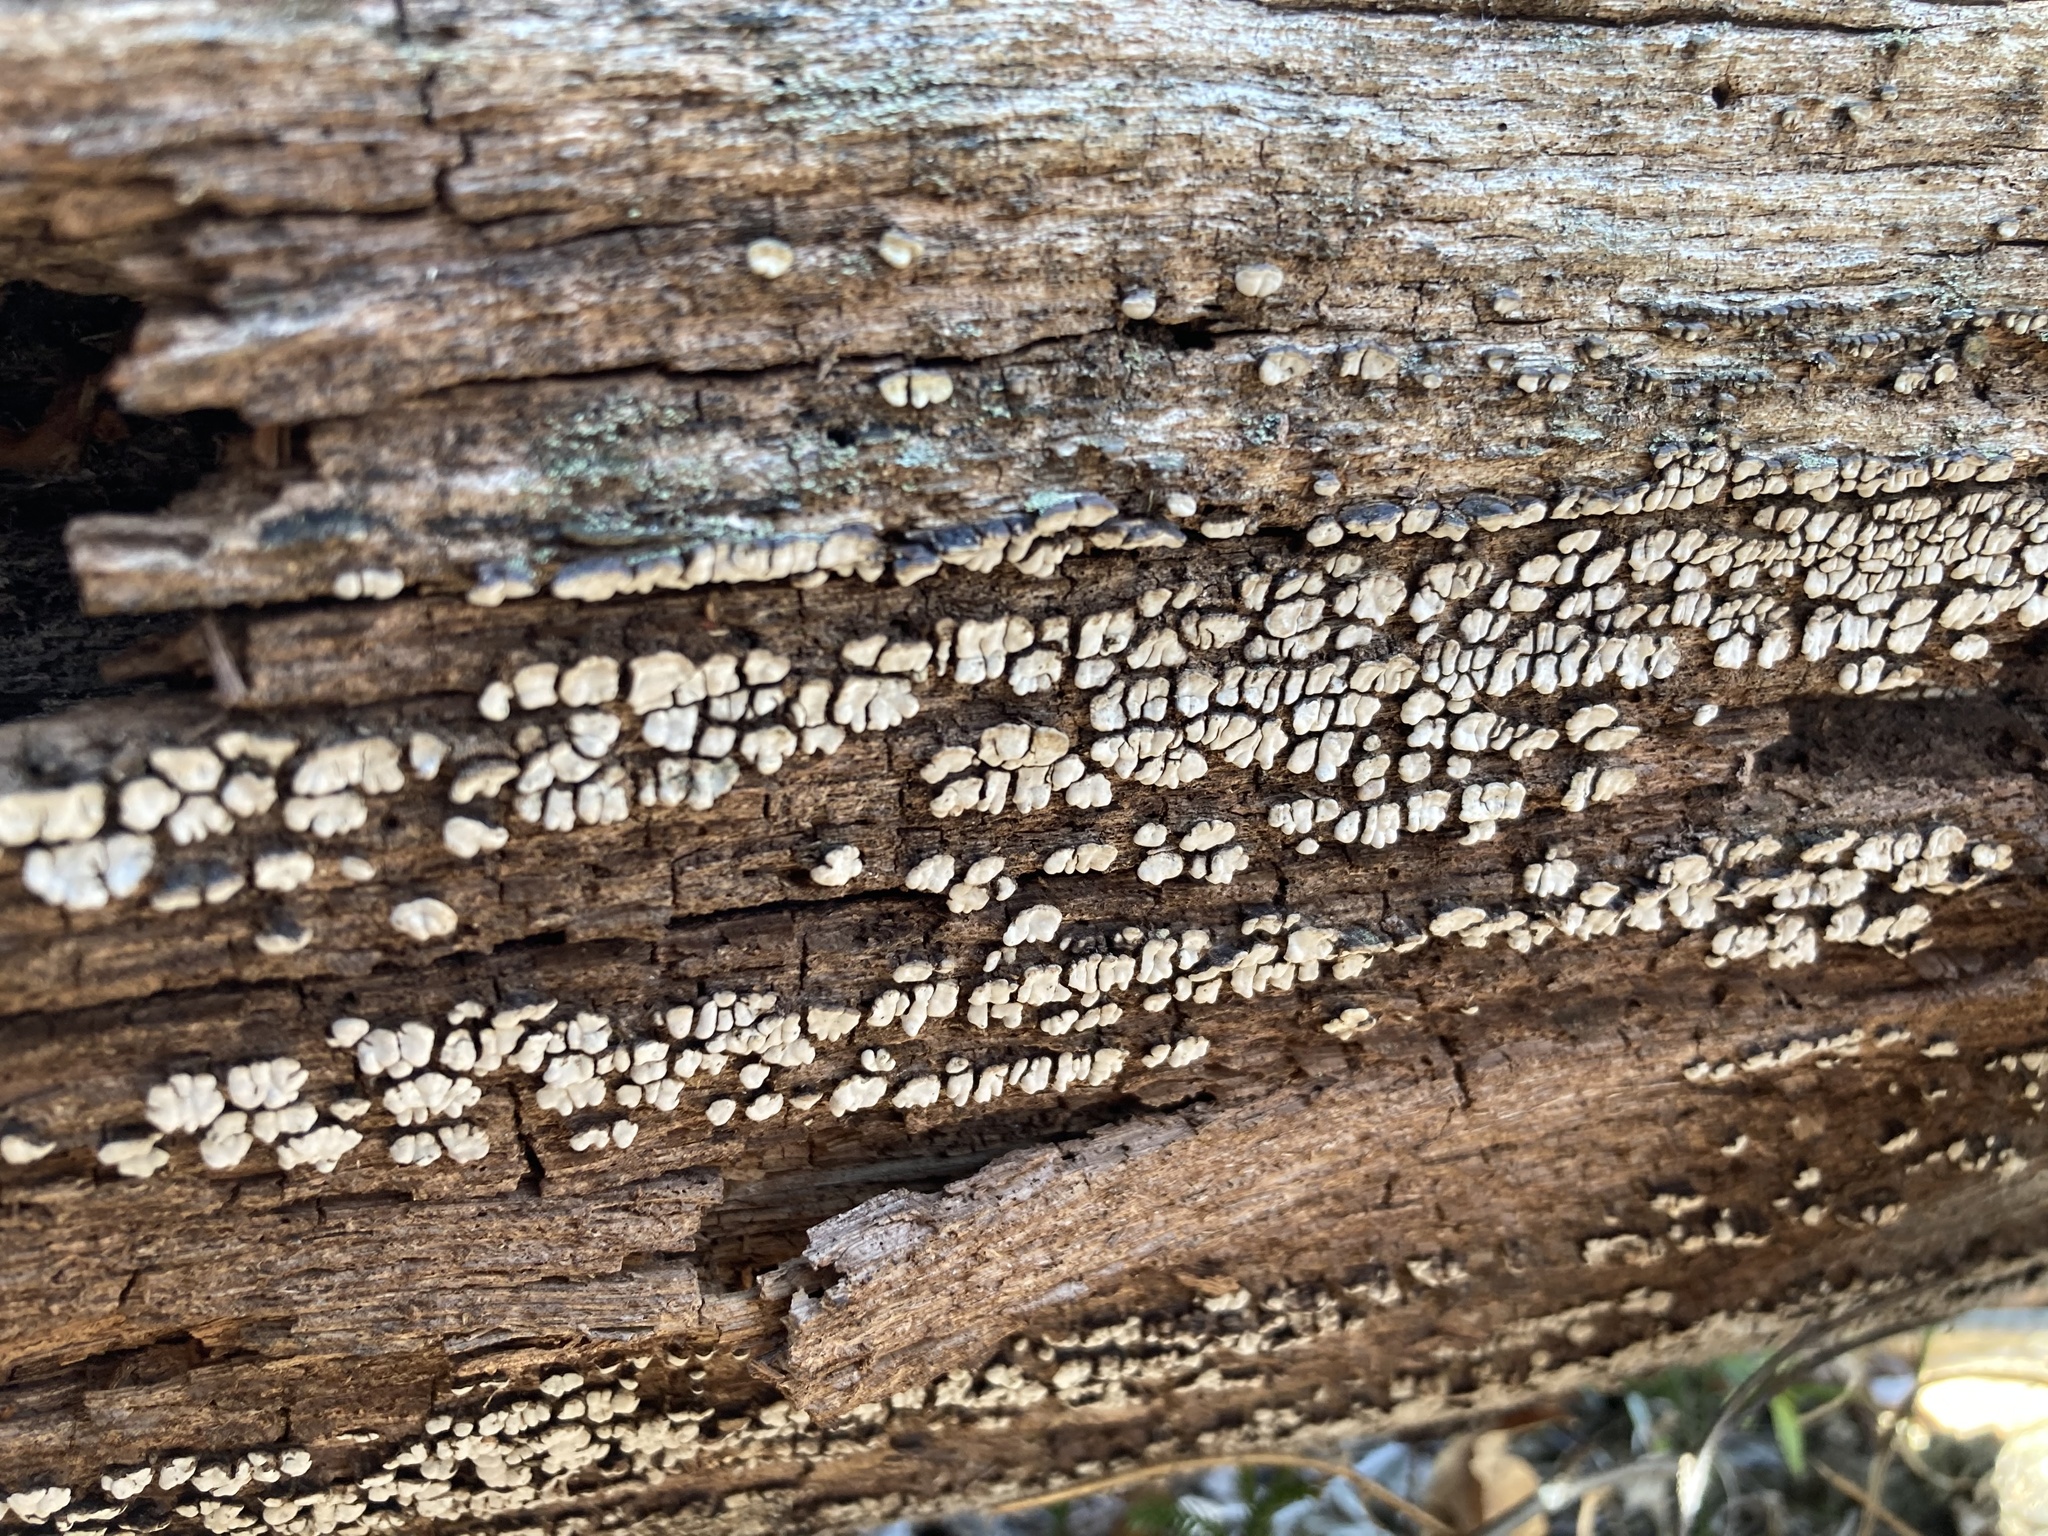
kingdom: Fungi
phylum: Basidiomycota
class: Agaricomycetes
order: Russulales
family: Stereaceae
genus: Xylobolus
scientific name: Xylobolus frustulatus
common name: Ceramic parchment
